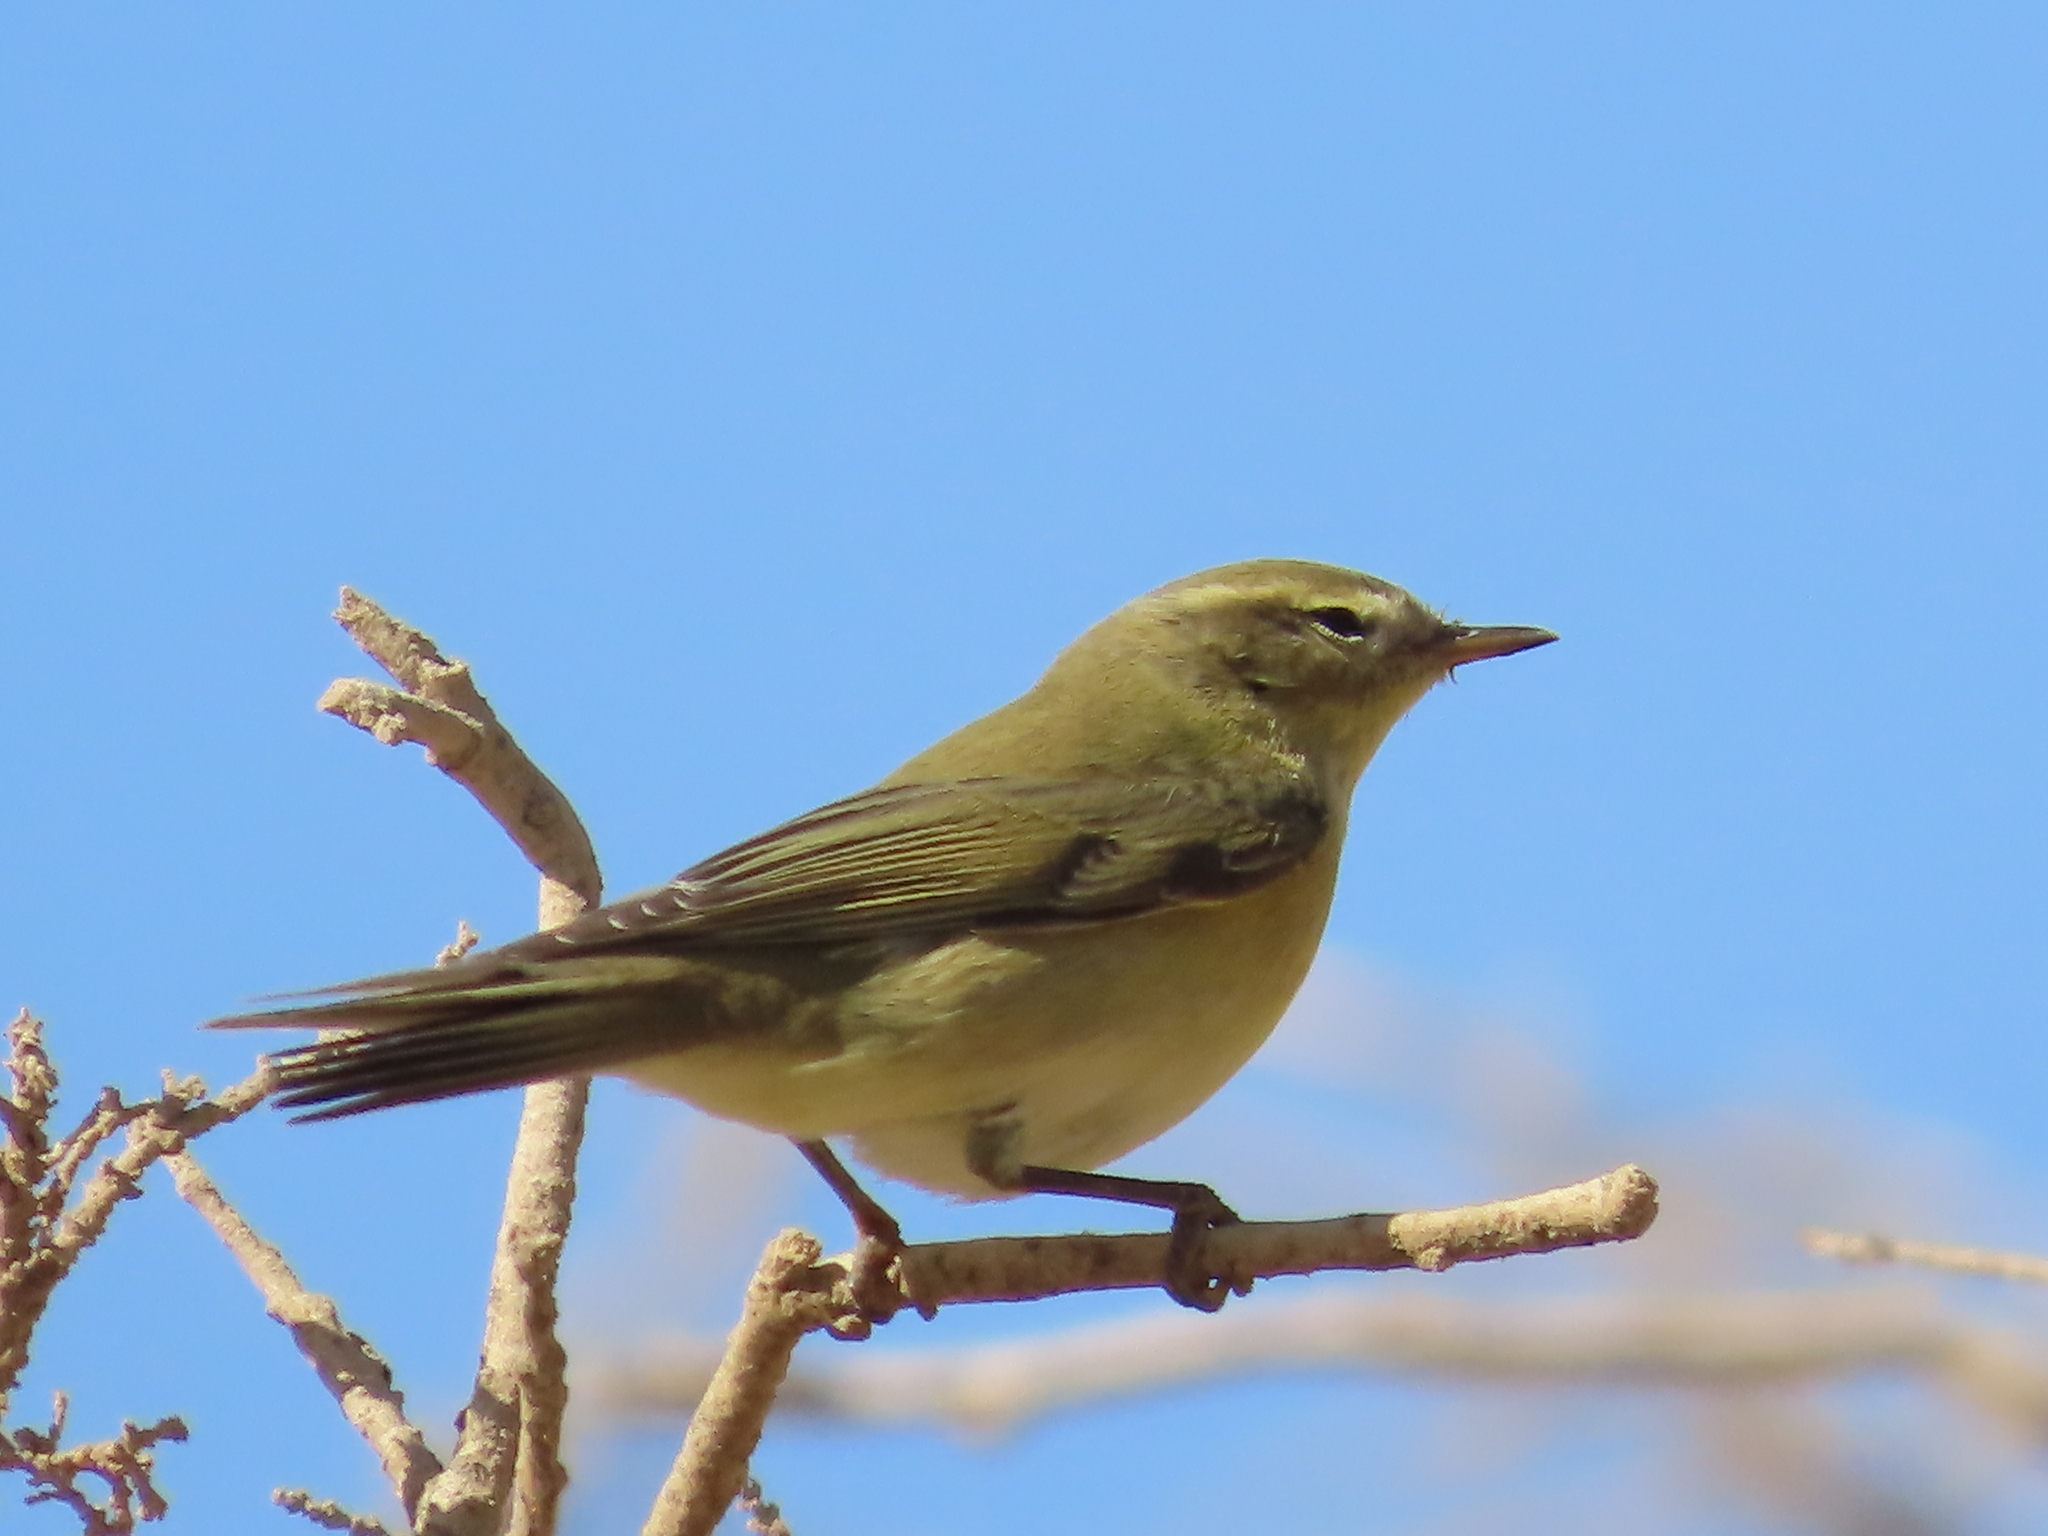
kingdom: Animalia
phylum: Chordata
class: Aves
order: Passeriformes
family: Phylloscopidae
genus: Phylloscopus
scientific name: Phylloscopus trochilus
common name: Willow warbler
